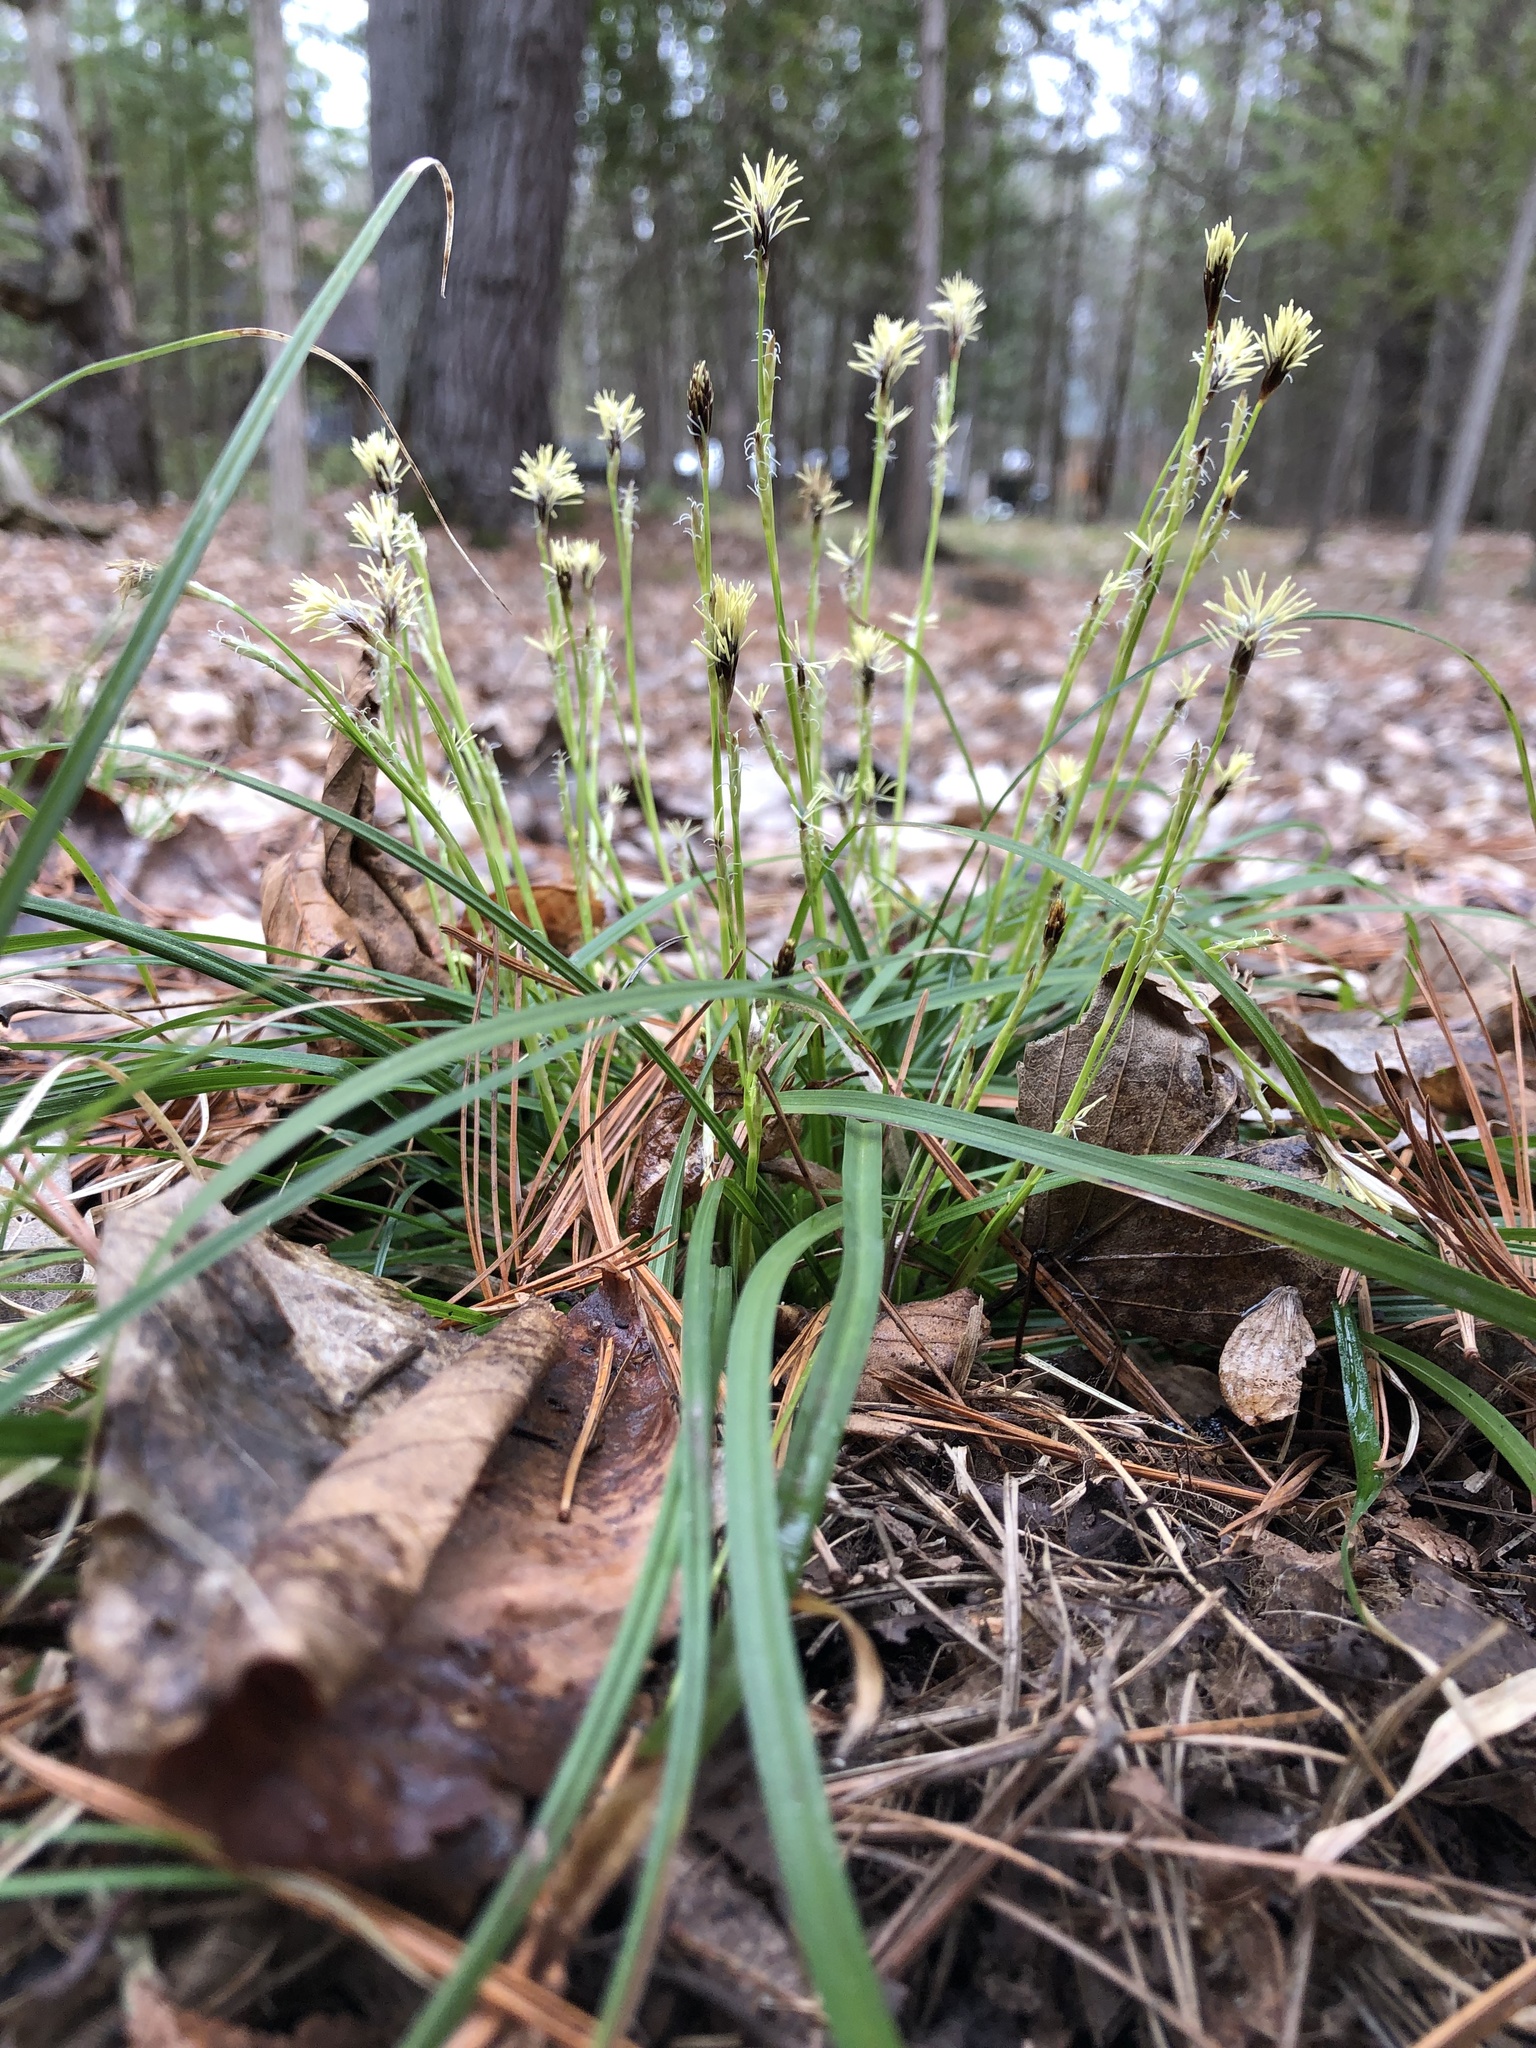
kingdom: Plantae
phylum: Tracheophyta
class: Liliopsida
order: Poales
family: Cyperaceae
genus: Carex
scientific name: Carex pedunculata
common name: Pedunculate sedge
